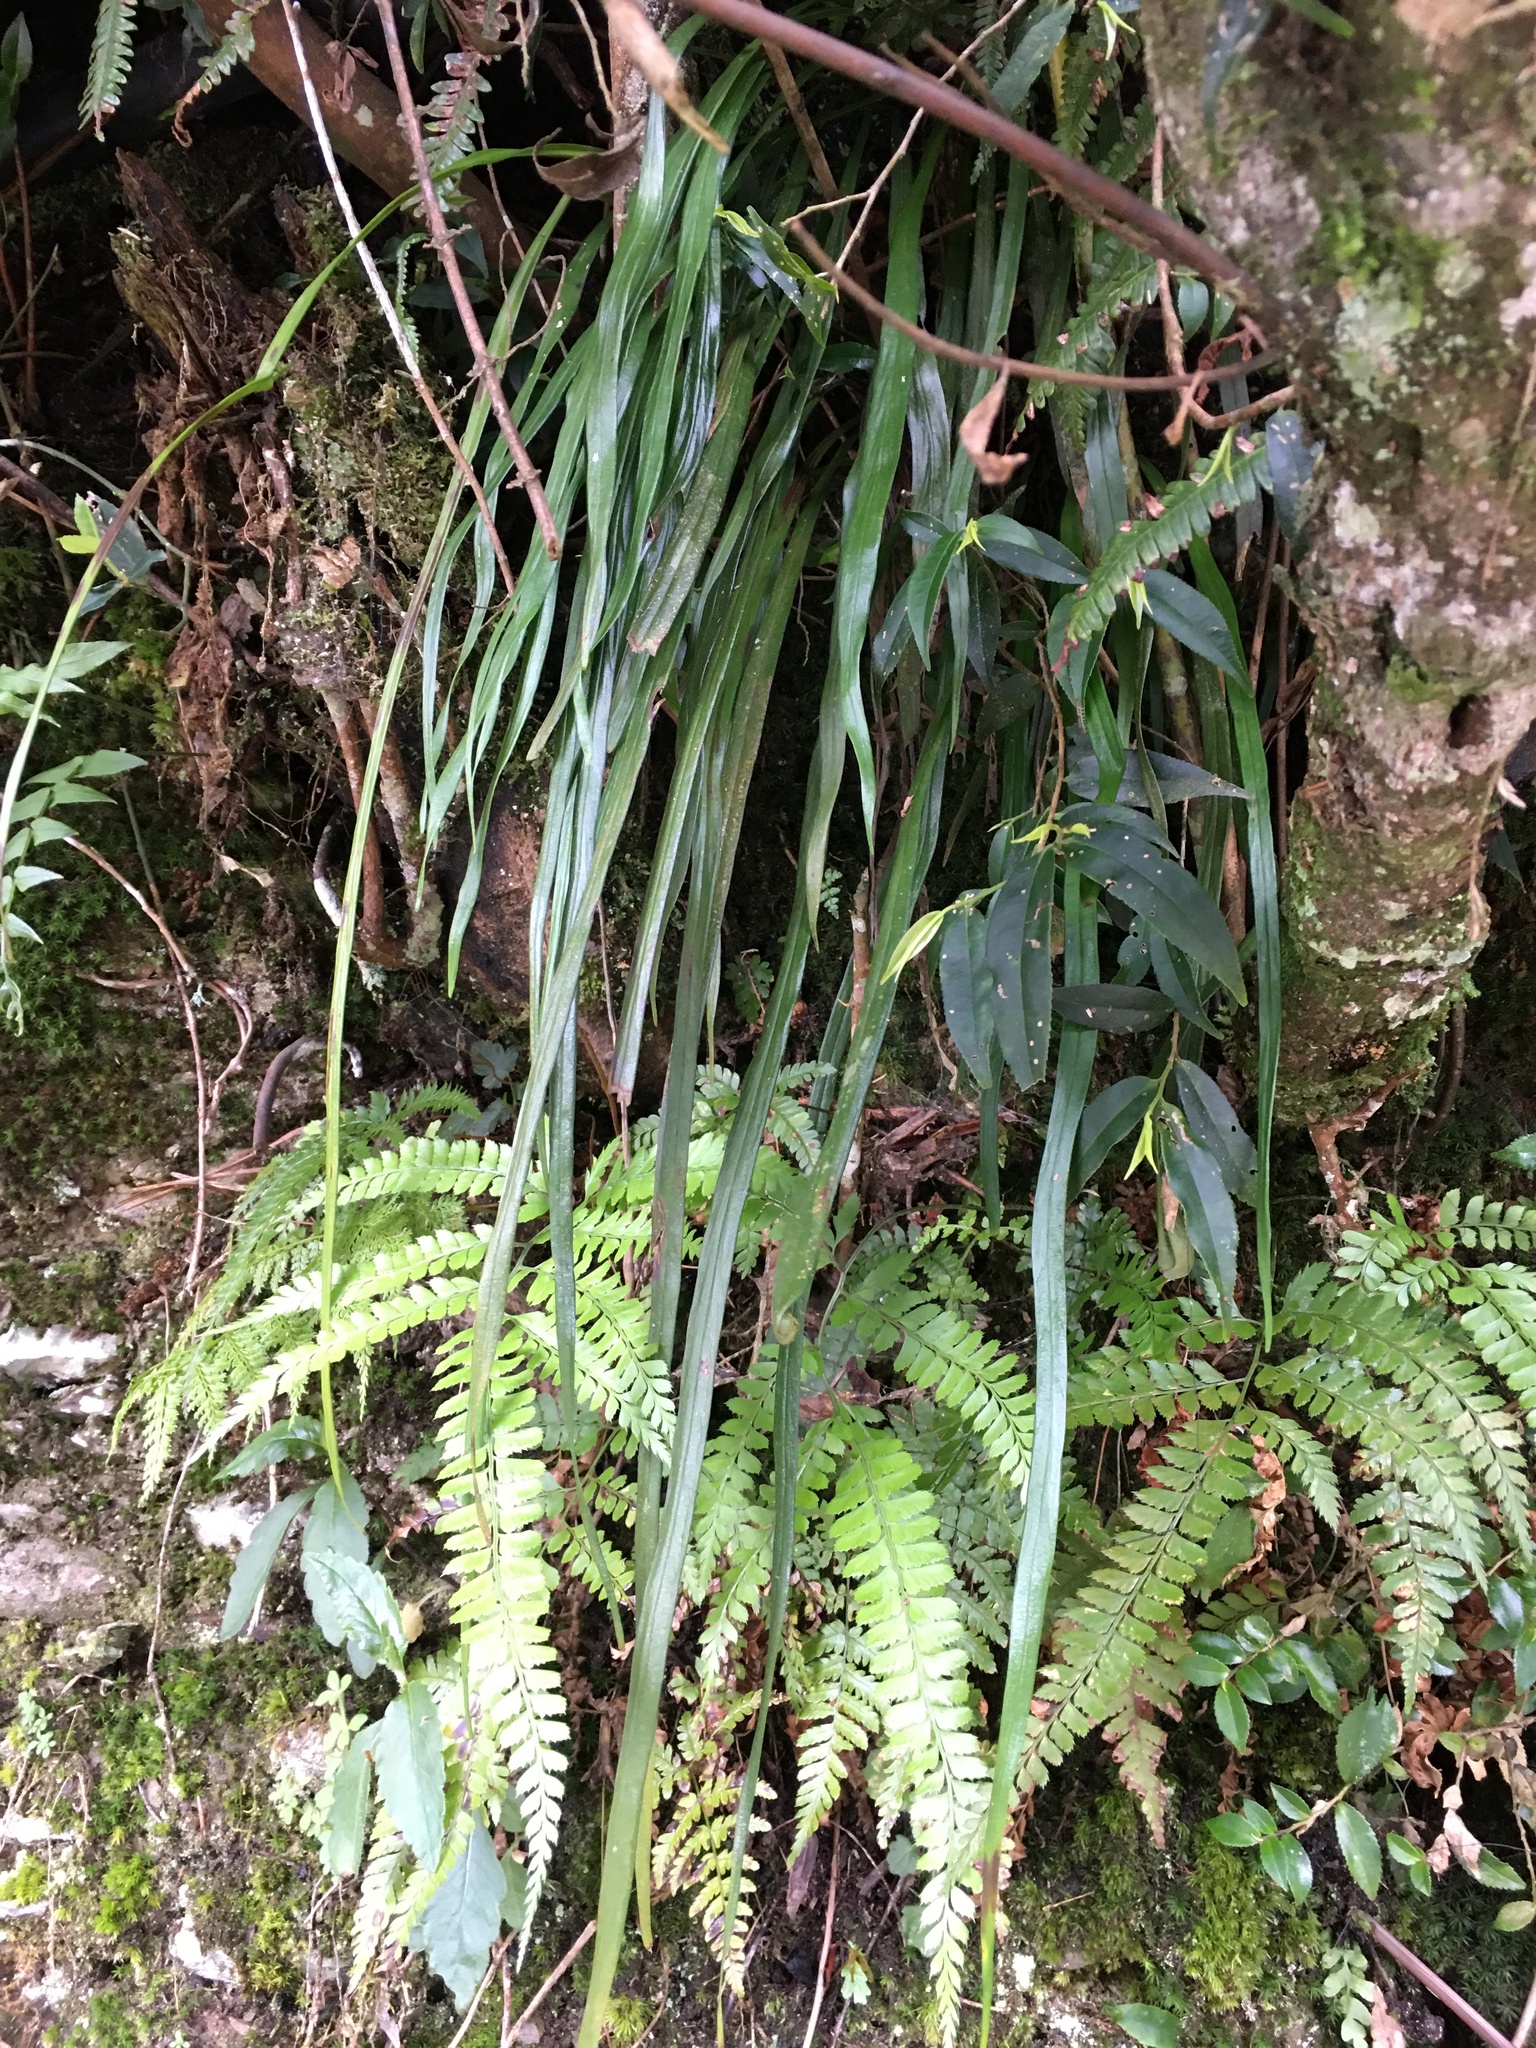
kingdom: Plantae
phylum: Tracheophyta
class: Polypodiopsida
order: Polypodiales
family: Pteridaceae
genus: Haplopteris
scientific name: Haplopteris flexuosa
